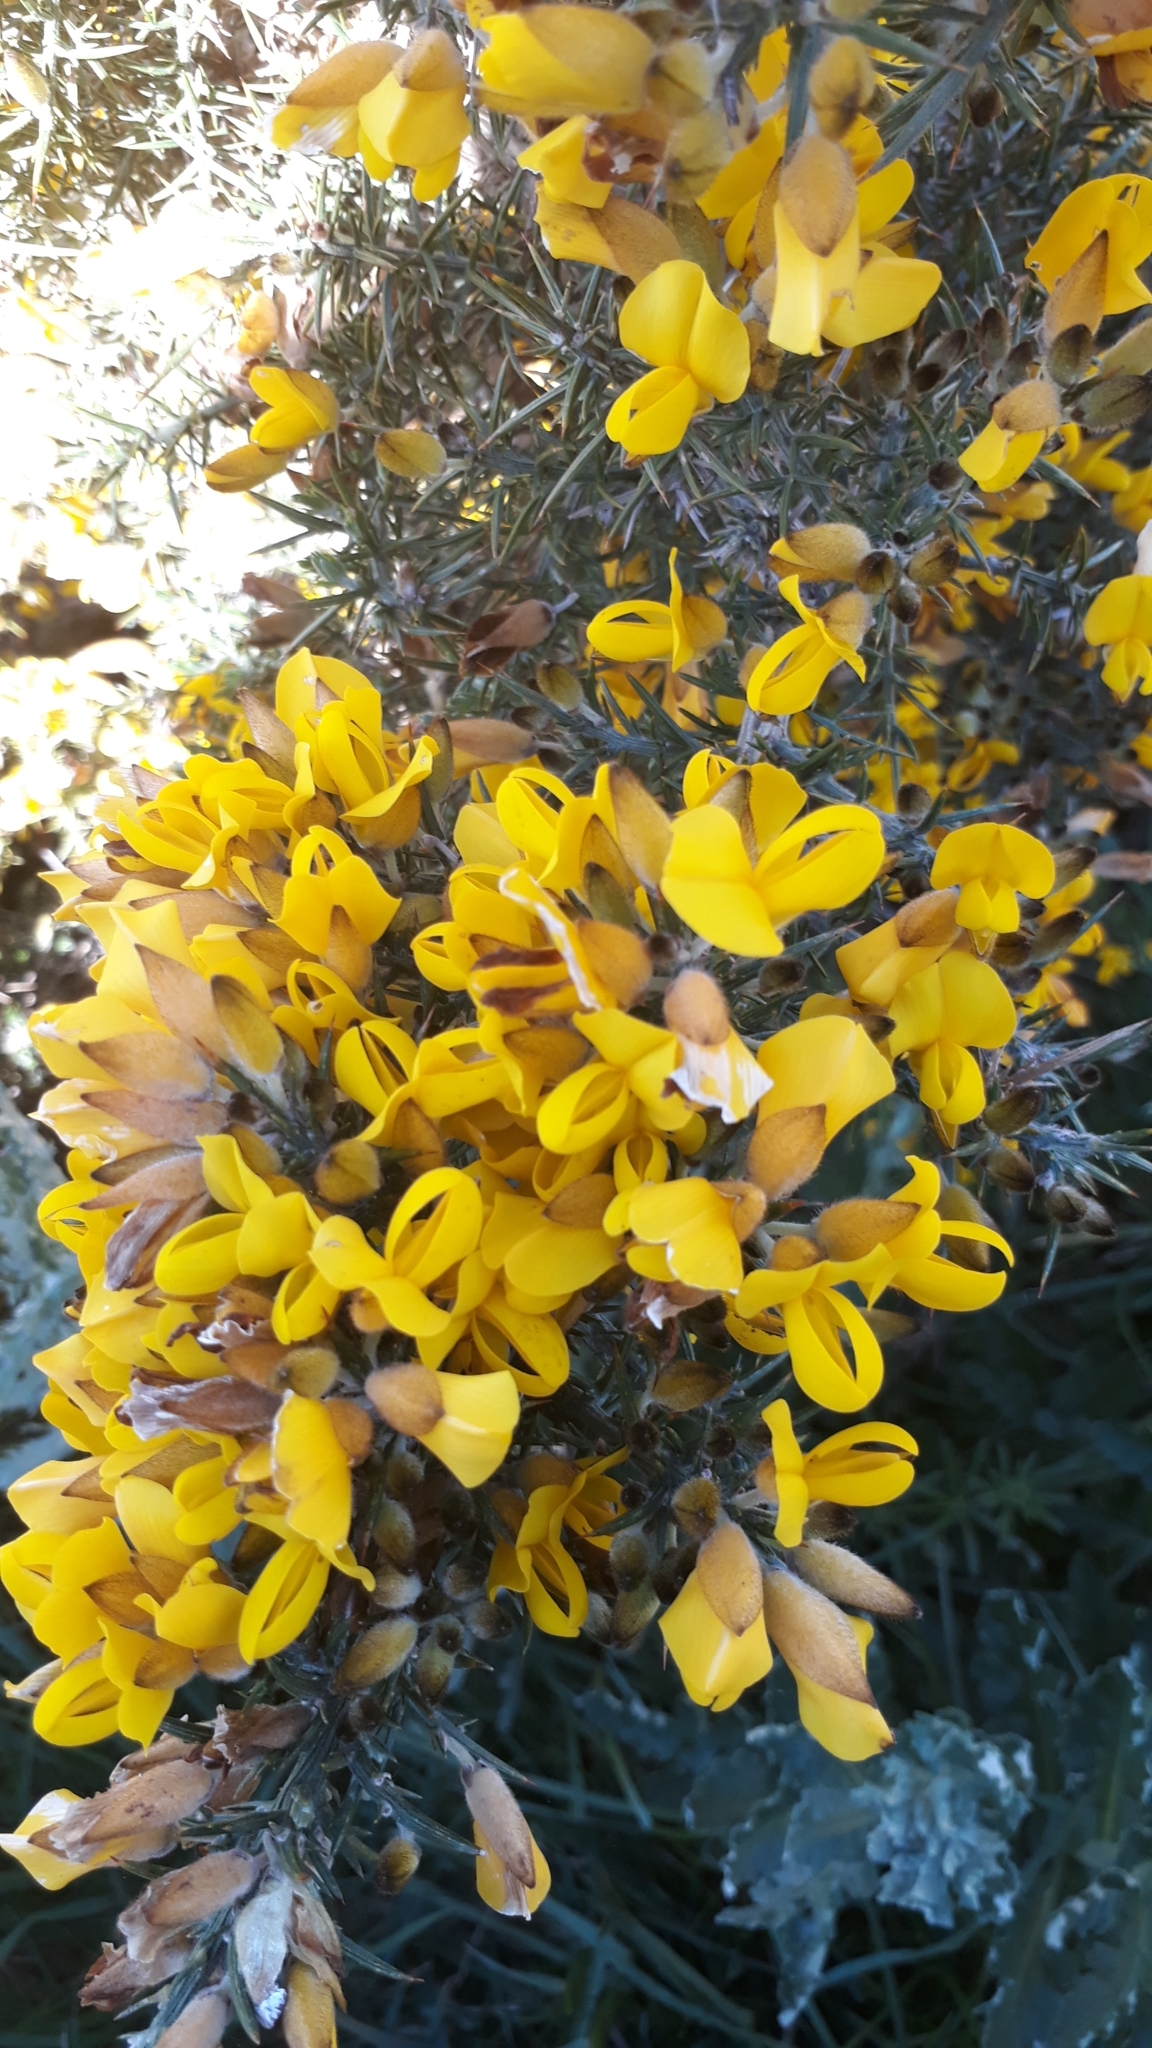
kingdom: Plantae
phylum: Tracheophyta
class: Magnoliopsida
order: Fabales
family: Fabaceae
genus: Ulex
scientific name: Ulex europaeus
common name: Common gorse
